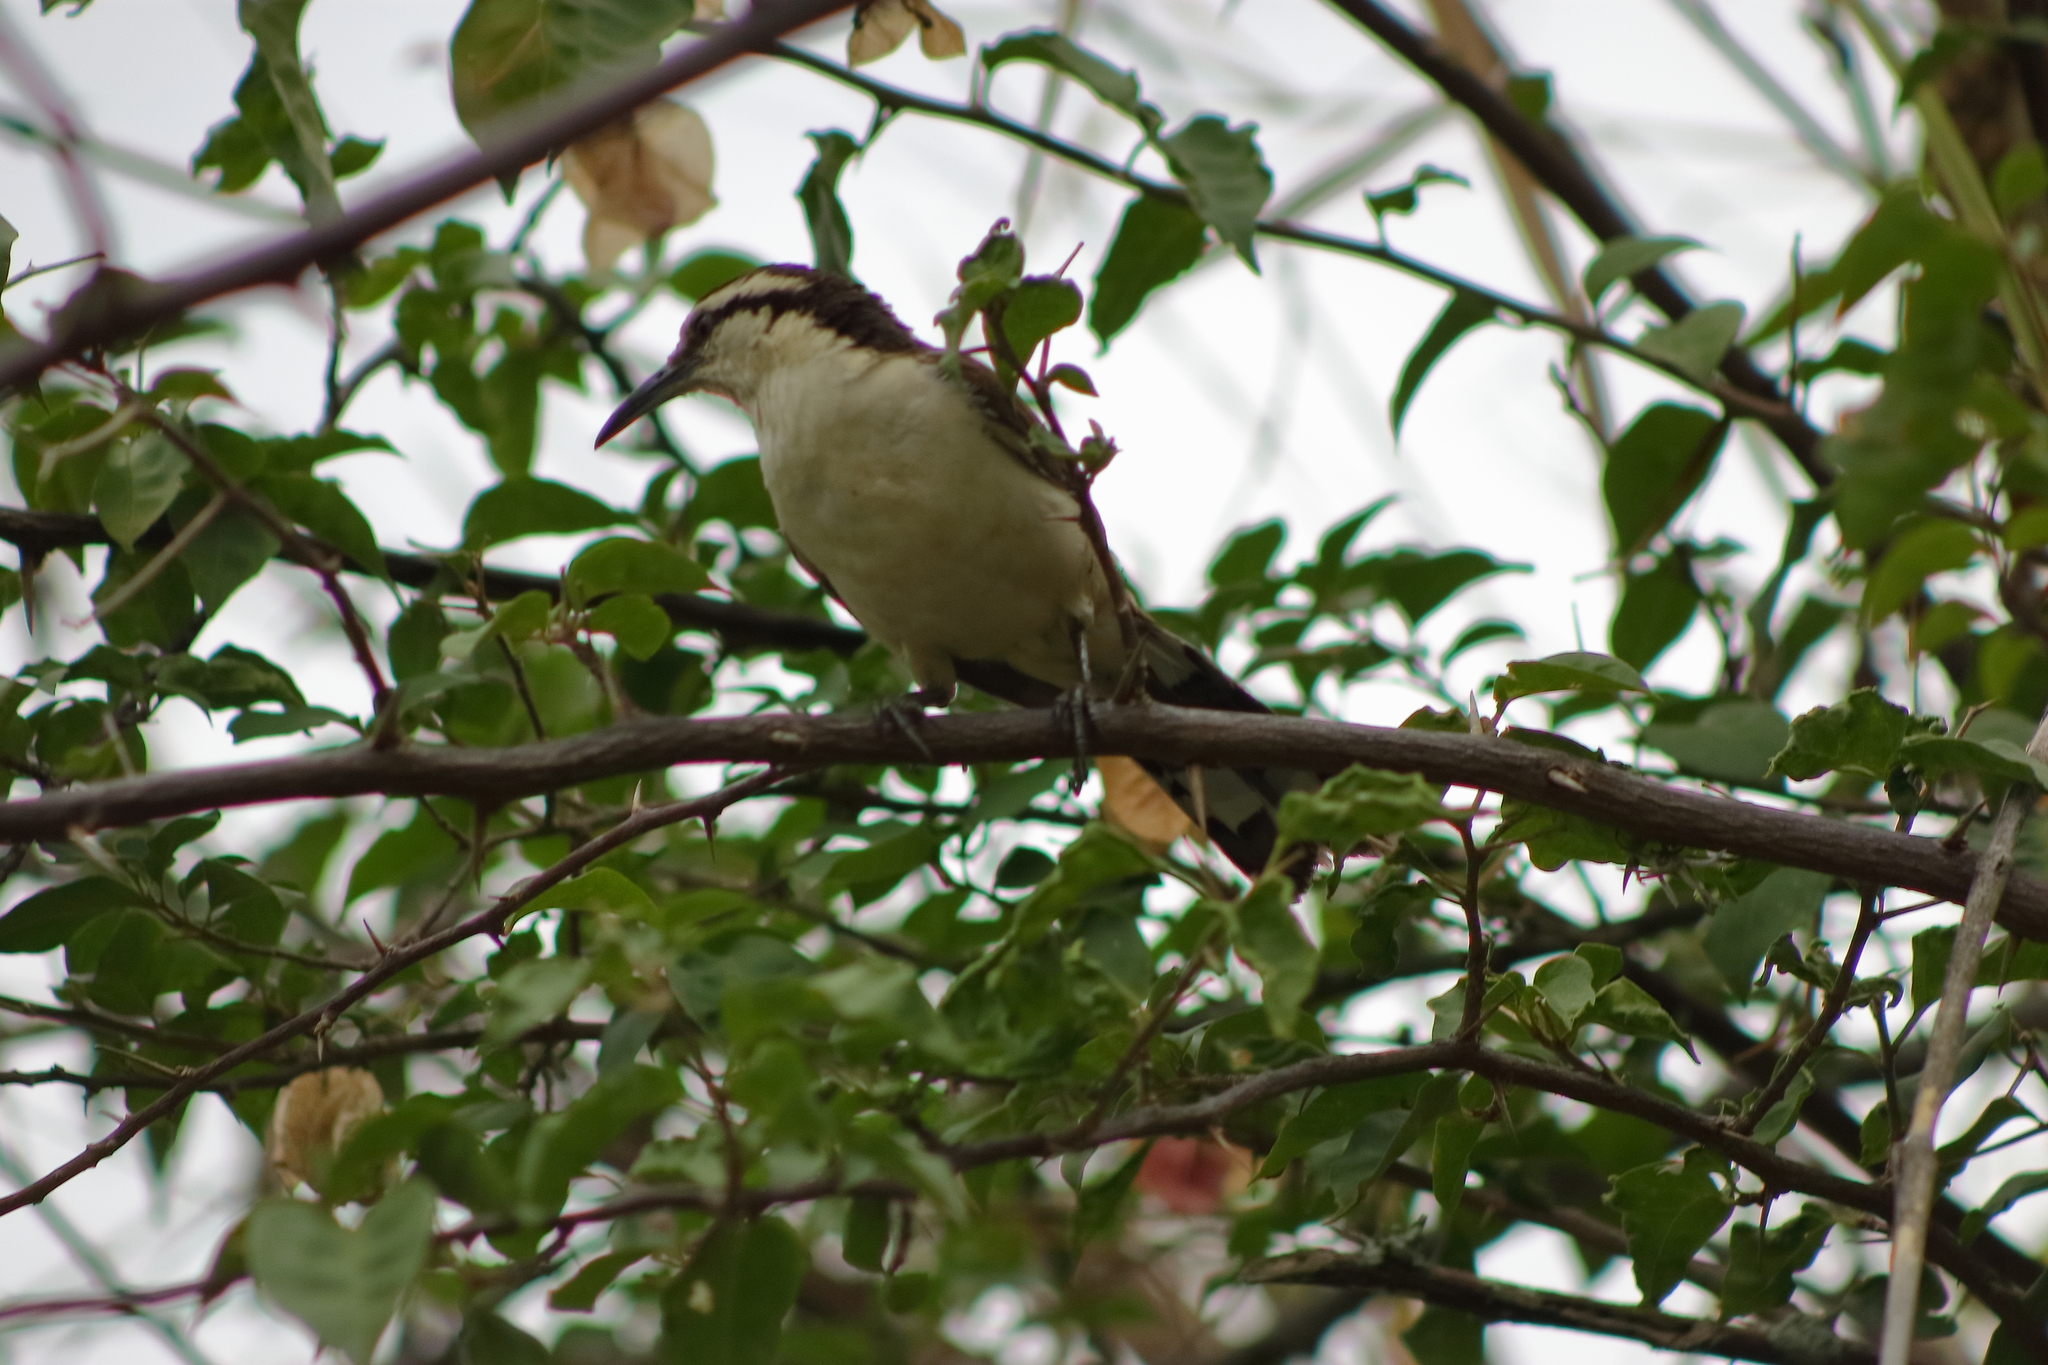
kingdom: Animalia
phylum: Chordata
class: Aves
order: Passeriformes
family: Troglodytidae
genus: Campylorhynchus
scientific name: Campylorhynchus griseus
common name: Bicolored wren
